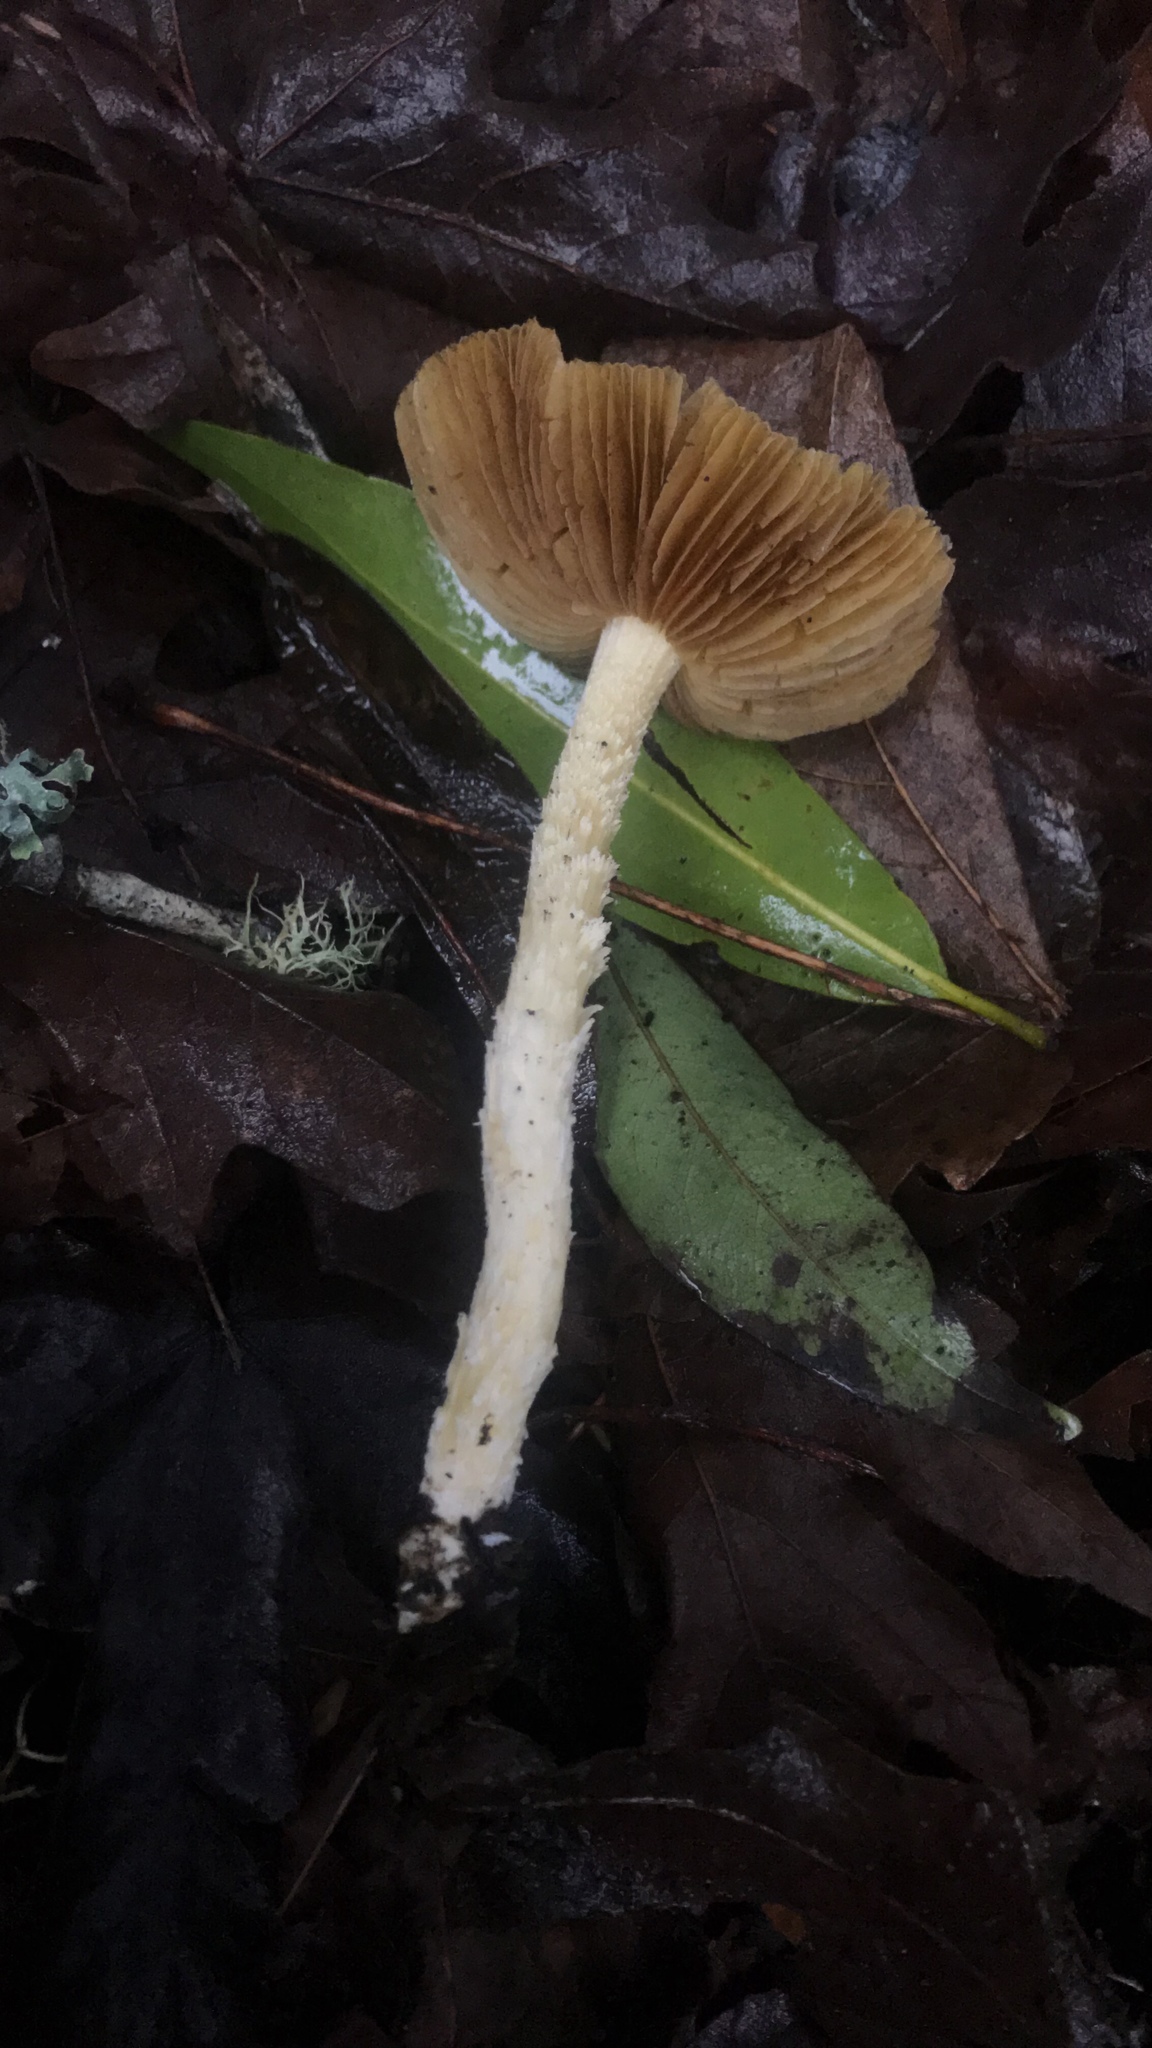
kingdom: Fungi
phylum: Basidiomycota
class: Agaricomycetes
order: Agaricales
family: Bolbitiaceae
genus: Bolbitius
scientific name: Bolbitius titubans
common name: Yellow fieldcap
